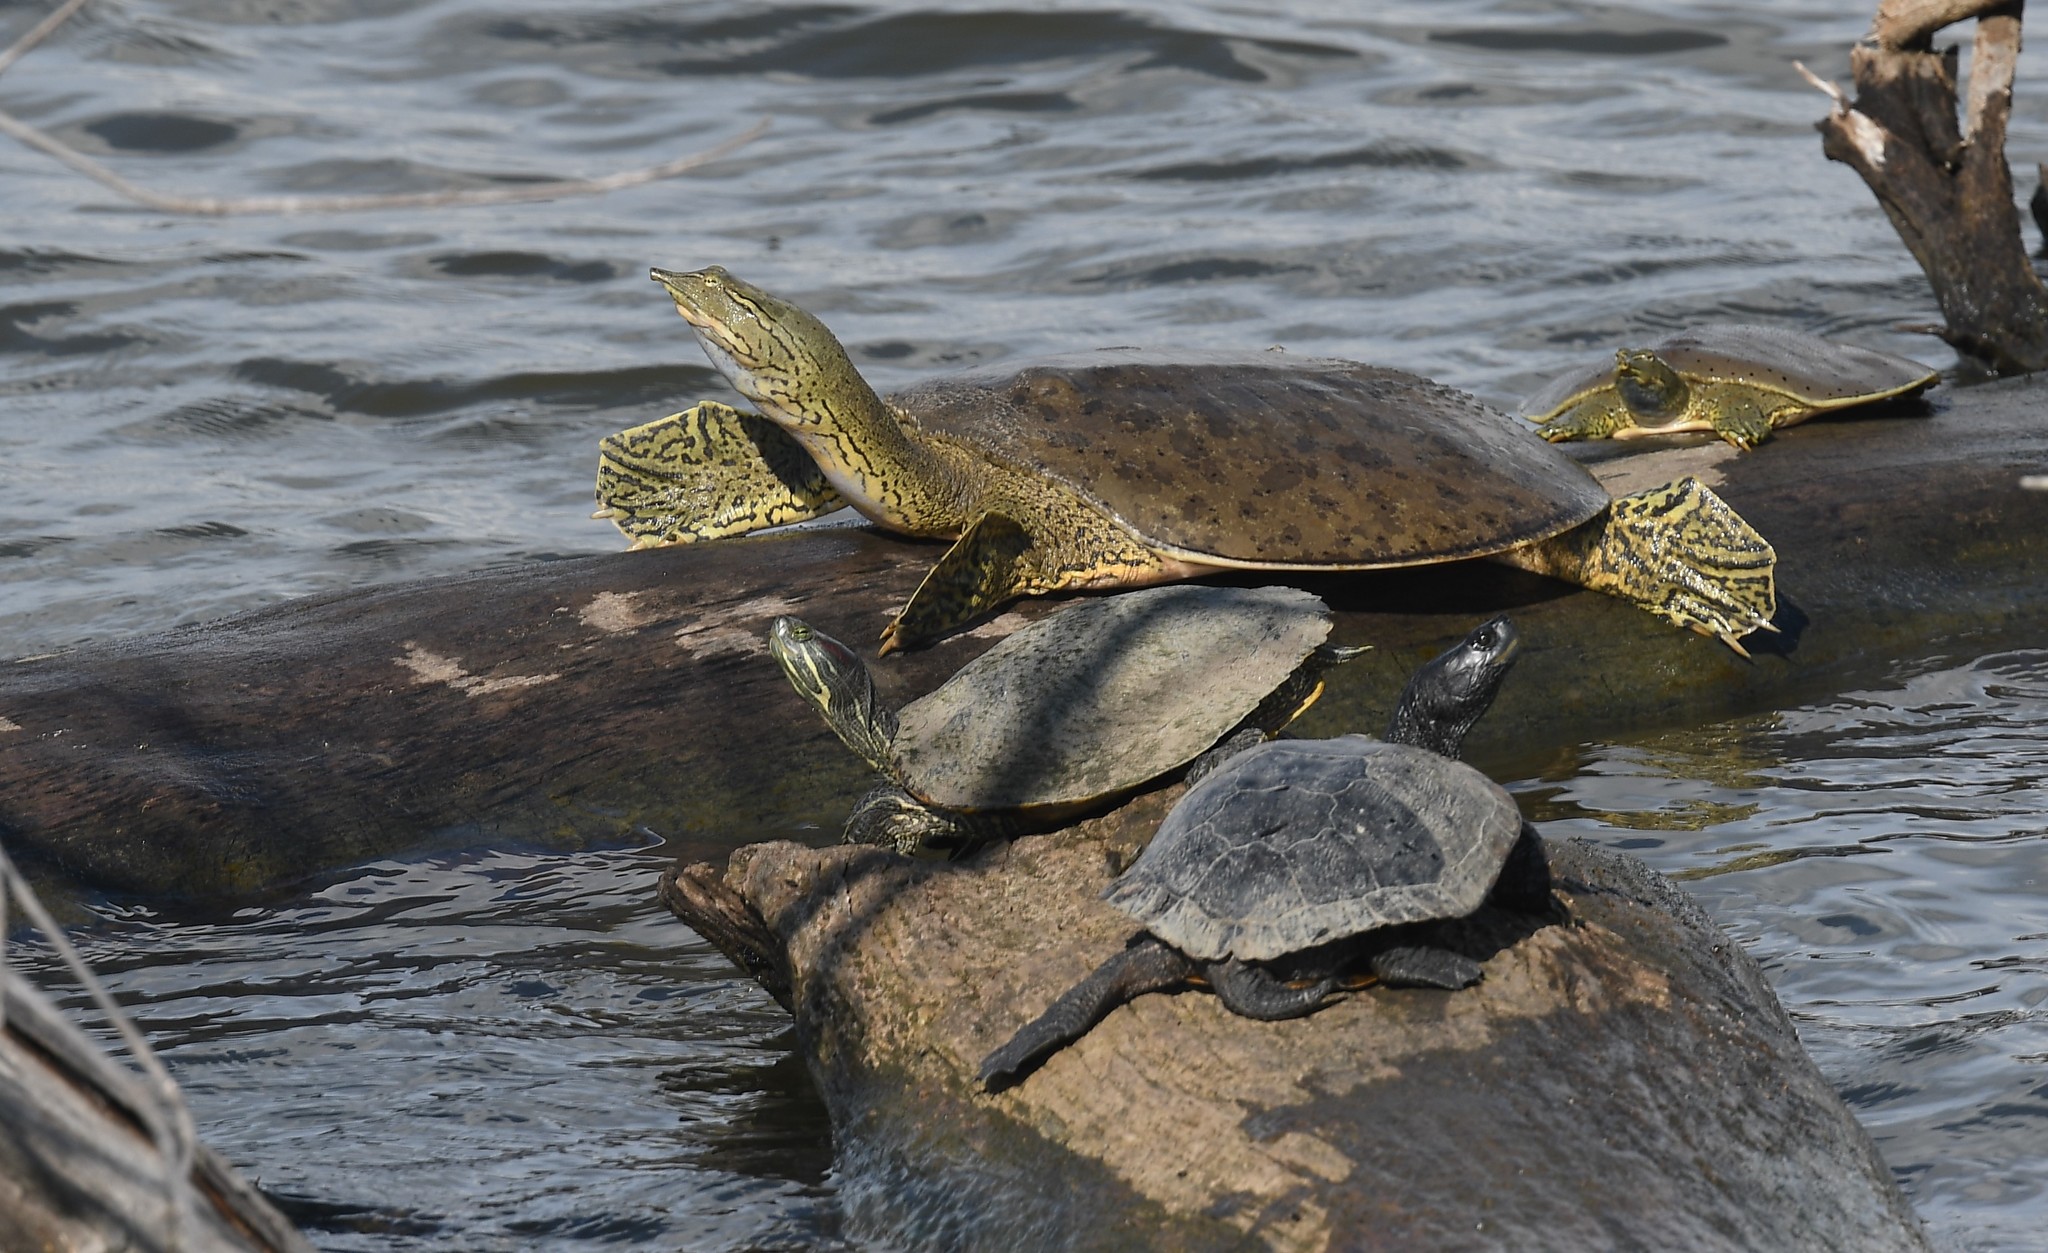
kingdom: Animalia
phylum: Chordata
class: Testudines
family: Trionychidae
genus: Apalone
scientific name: Apalone spinifera
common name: Spiny softshell turtle
